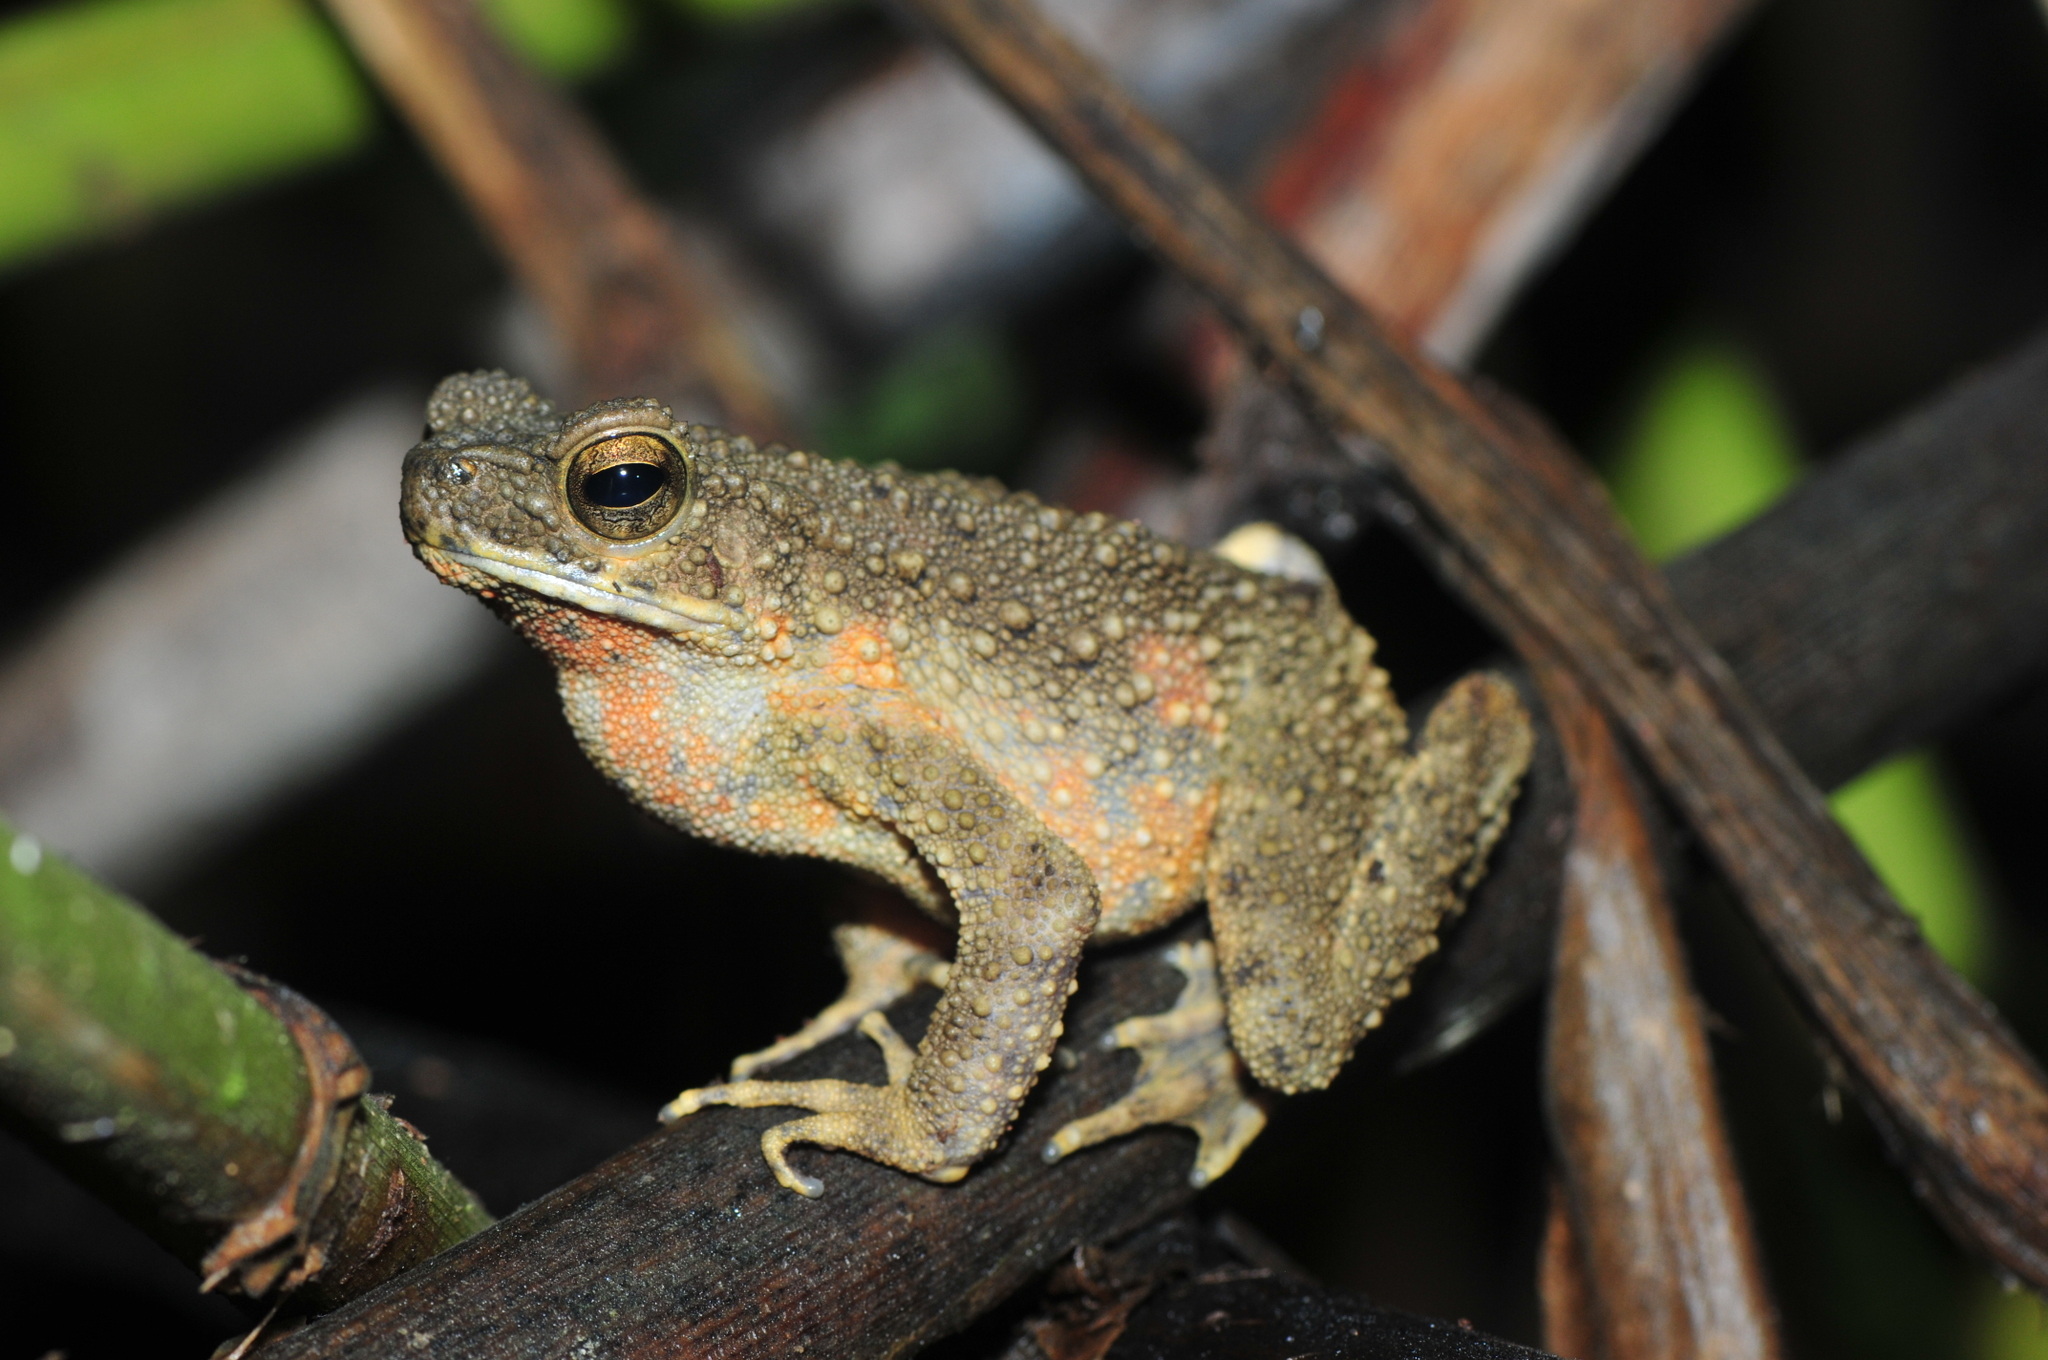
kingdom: Animalia
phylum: Chordata
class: Amphibia
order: Anura
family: Bufonidae
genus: Phrynoidis
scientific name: Phrynoidis asper
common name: Asian giant toad
